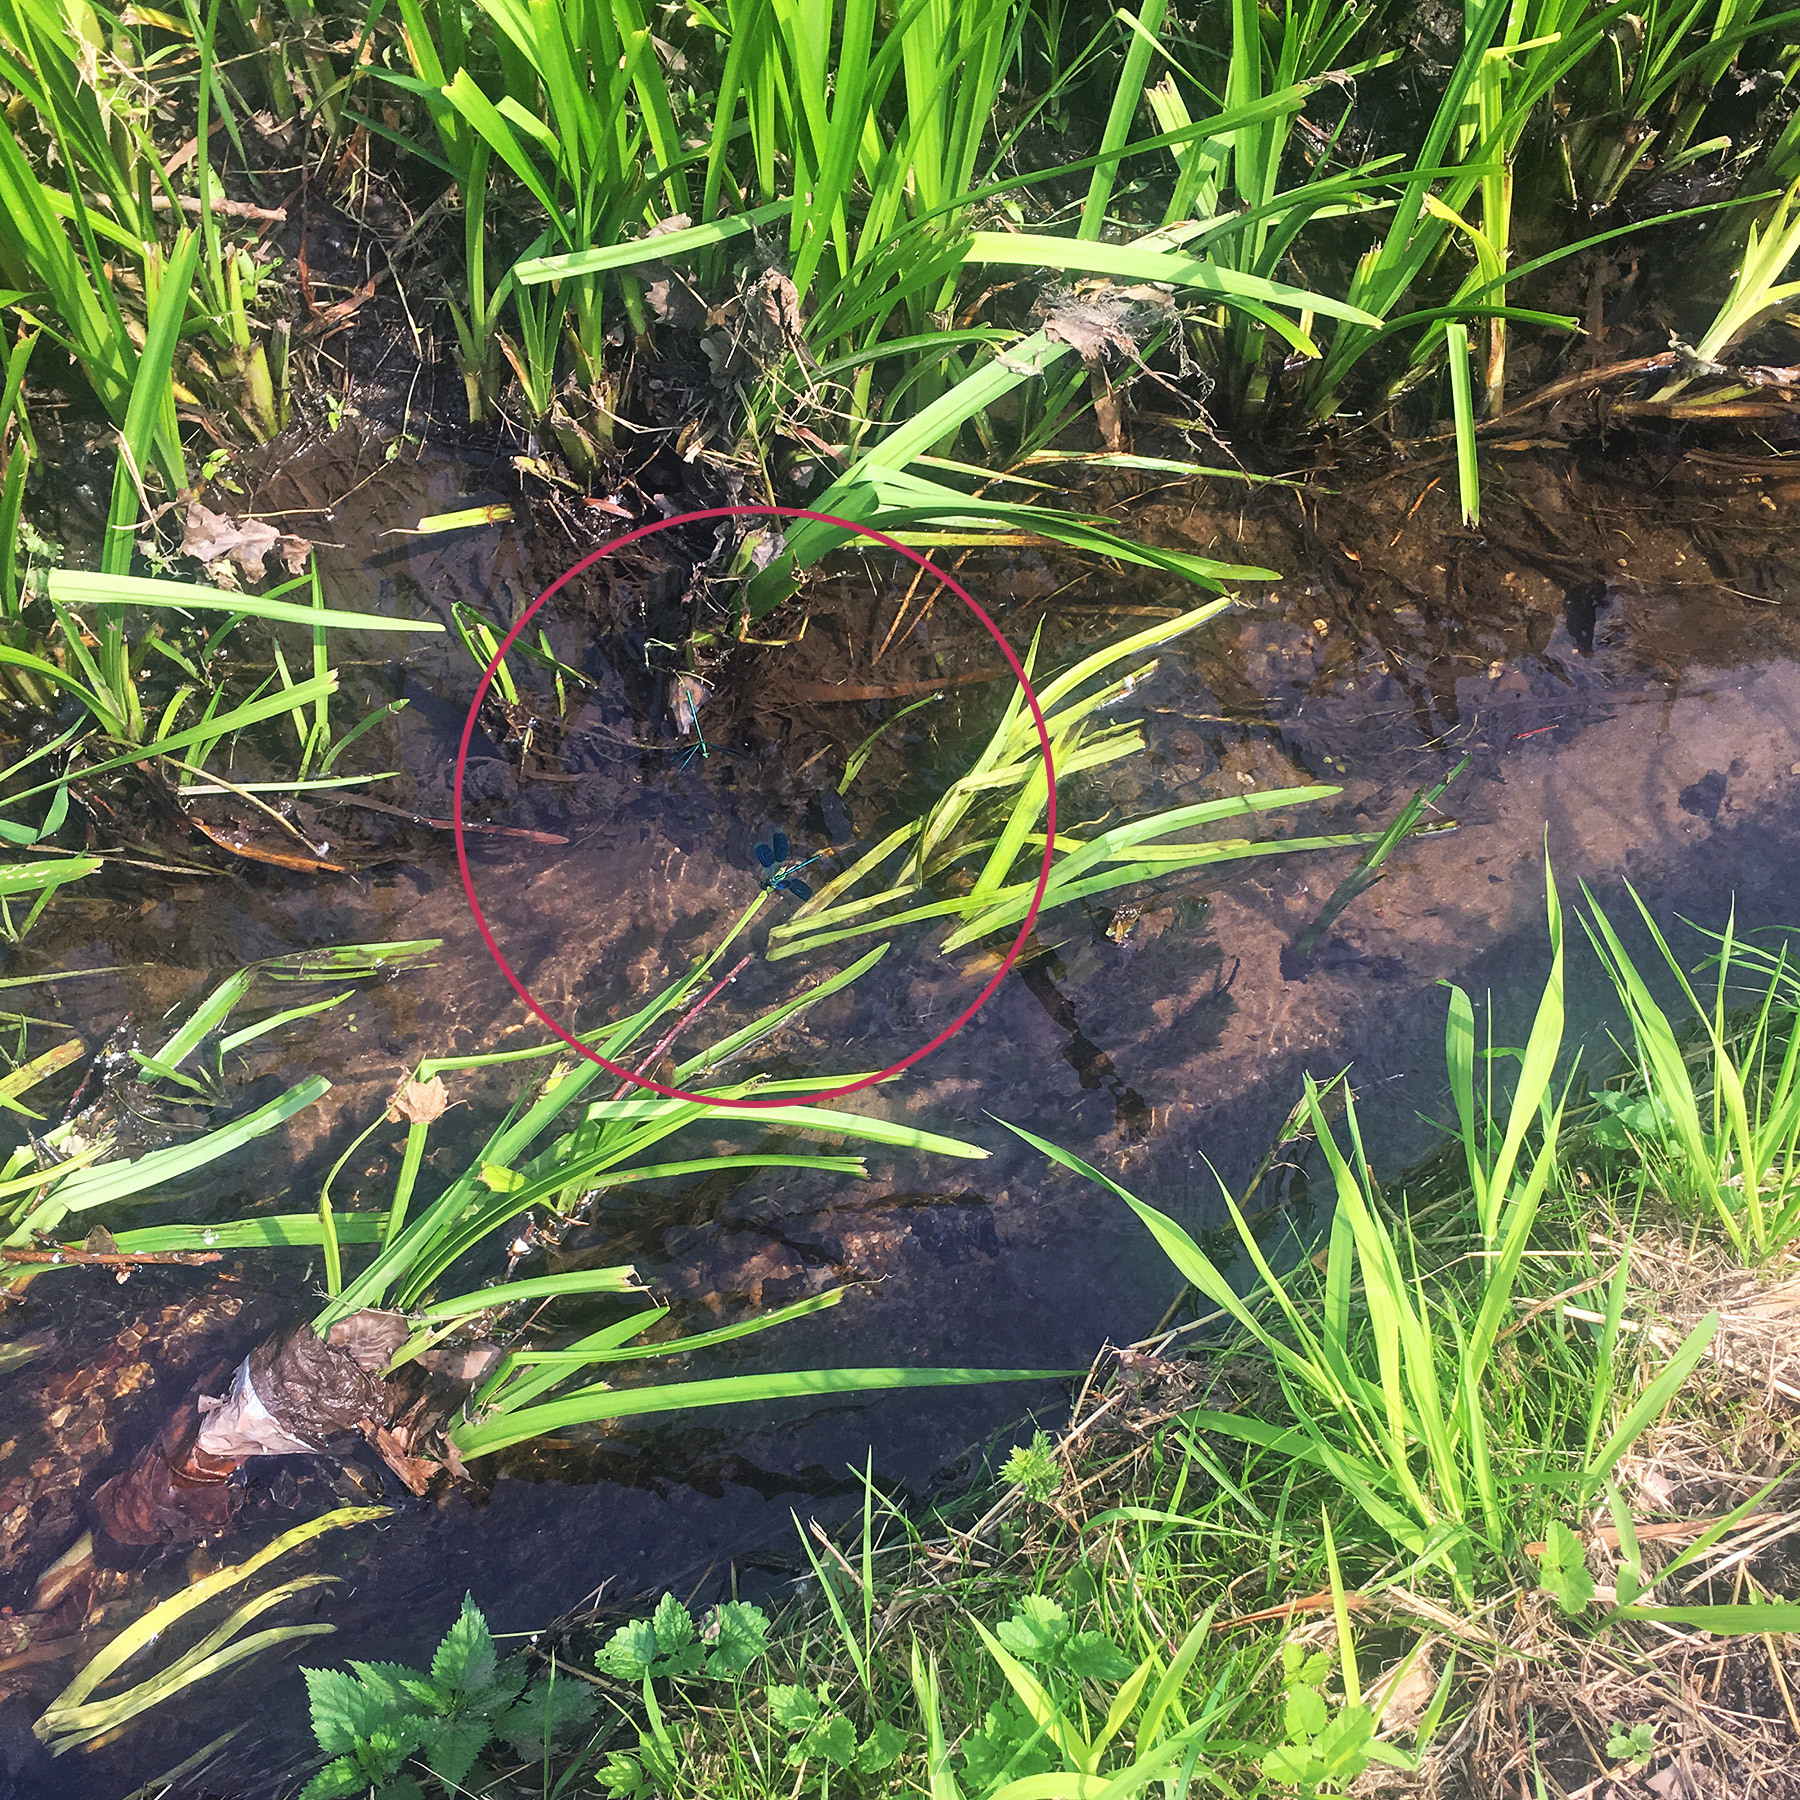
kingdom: Animalia
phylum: Arthropoda
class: Insecta
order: Odonata
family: Calopterygidae
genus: Calopteryx
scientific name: Calopteryx splendens
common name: Banded demoiselle
